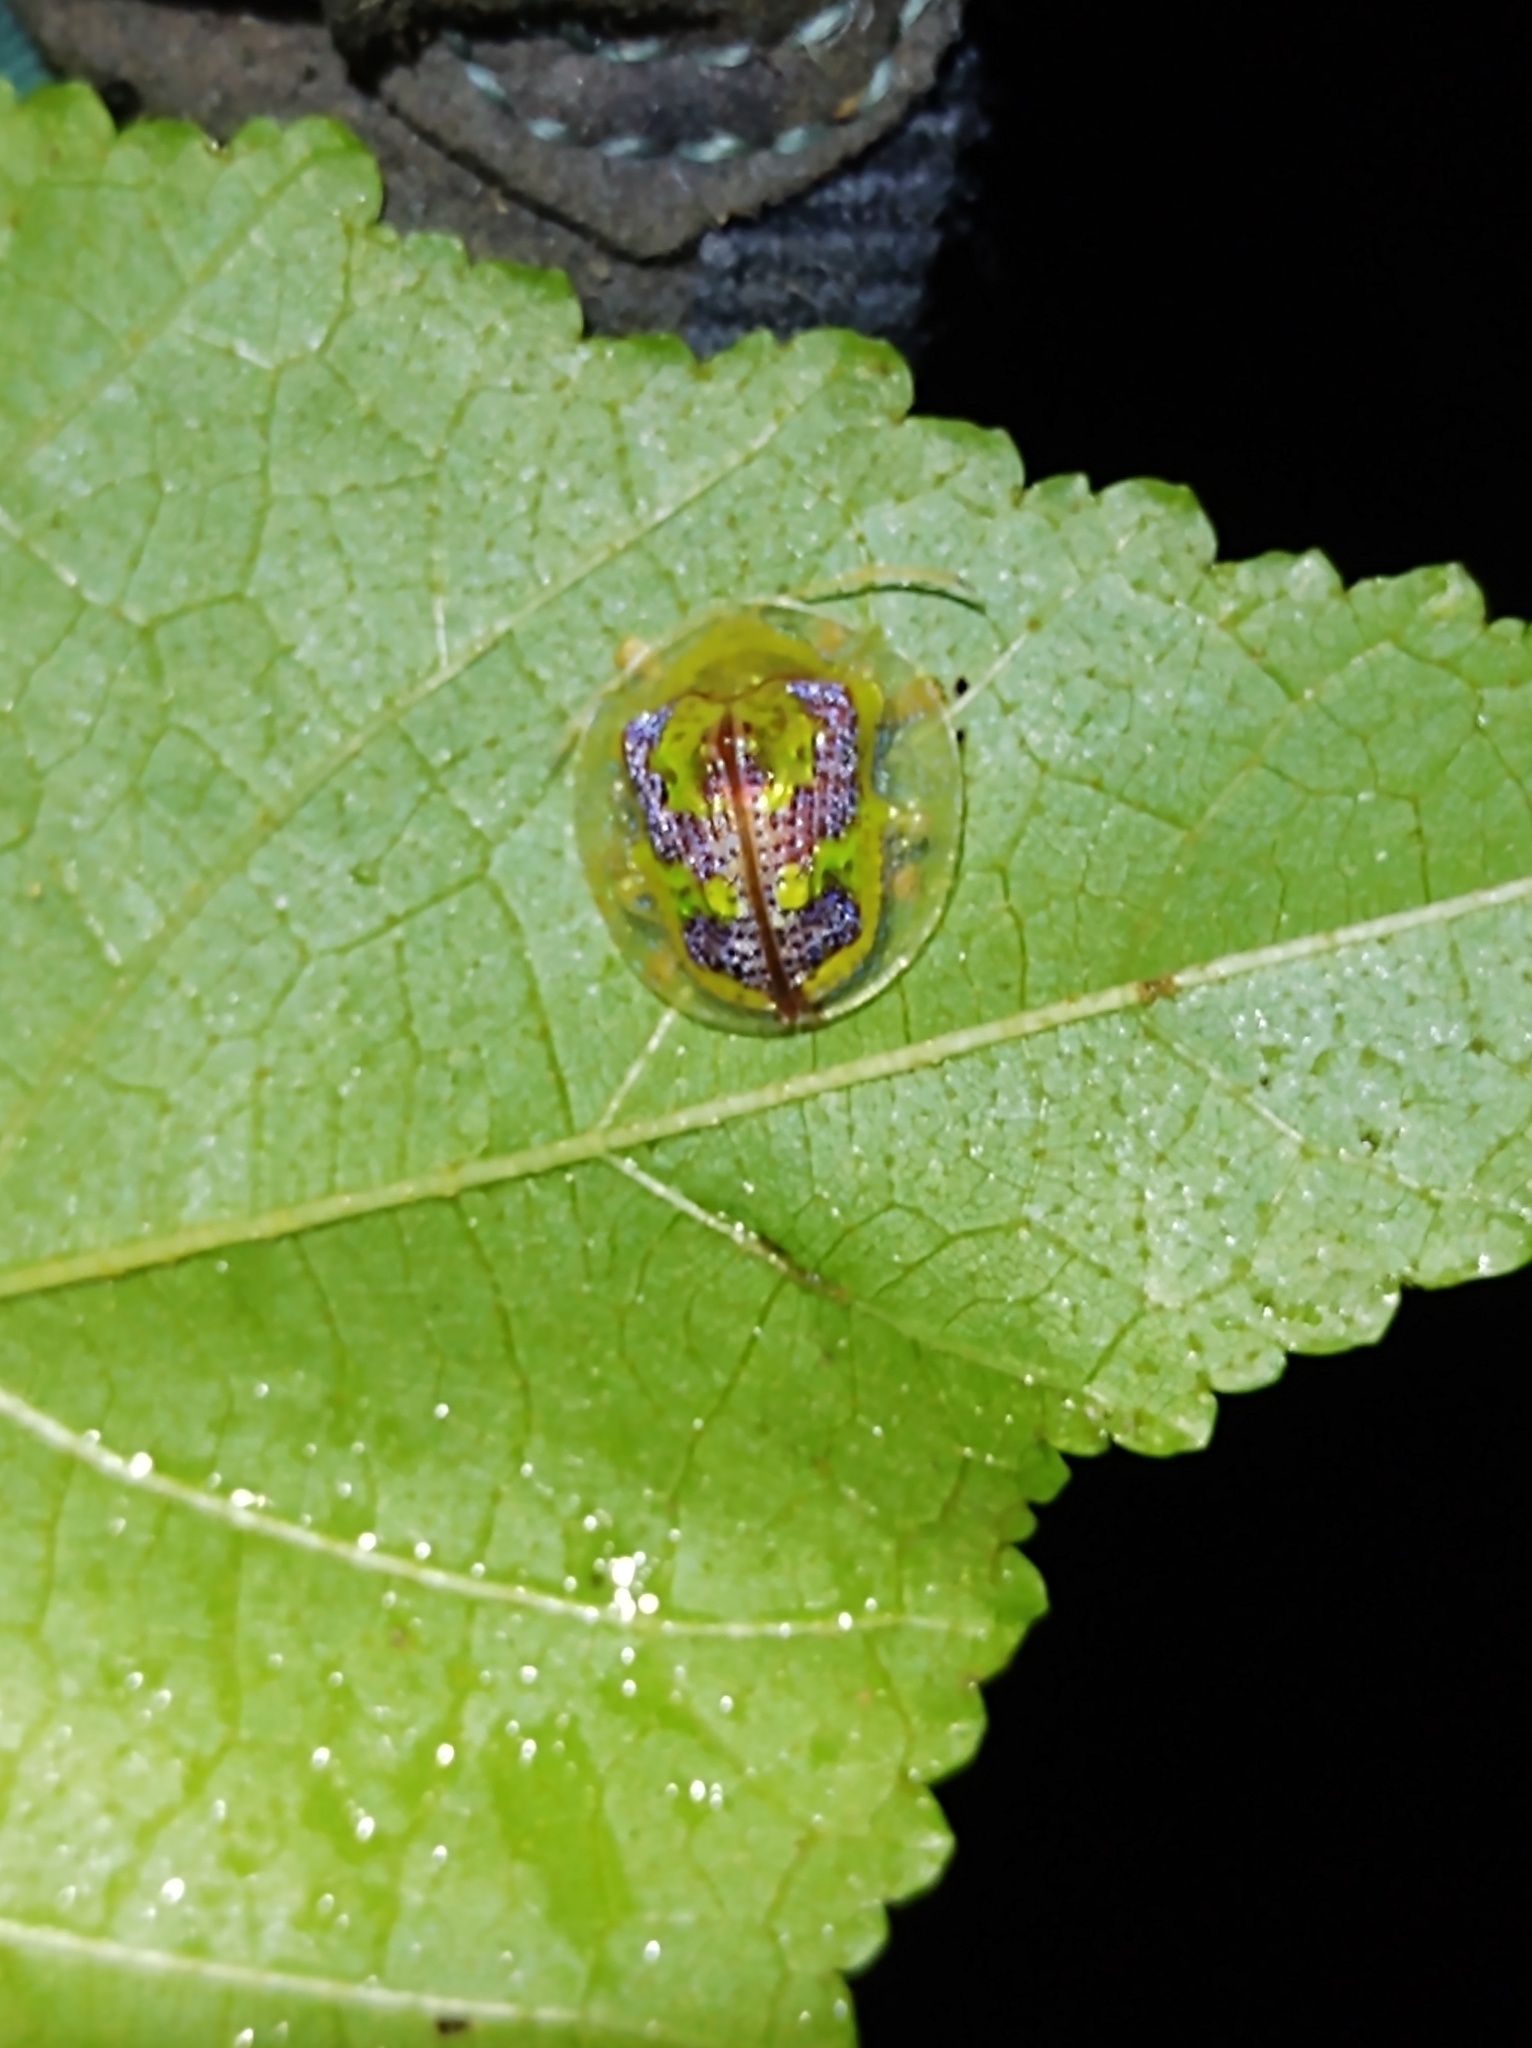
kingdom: Animalia
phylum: Arthropoda
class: Insecta
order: Coleoptera
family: Chrysomelidae
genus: Coptocycla
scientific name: Coptocycla leprosa
